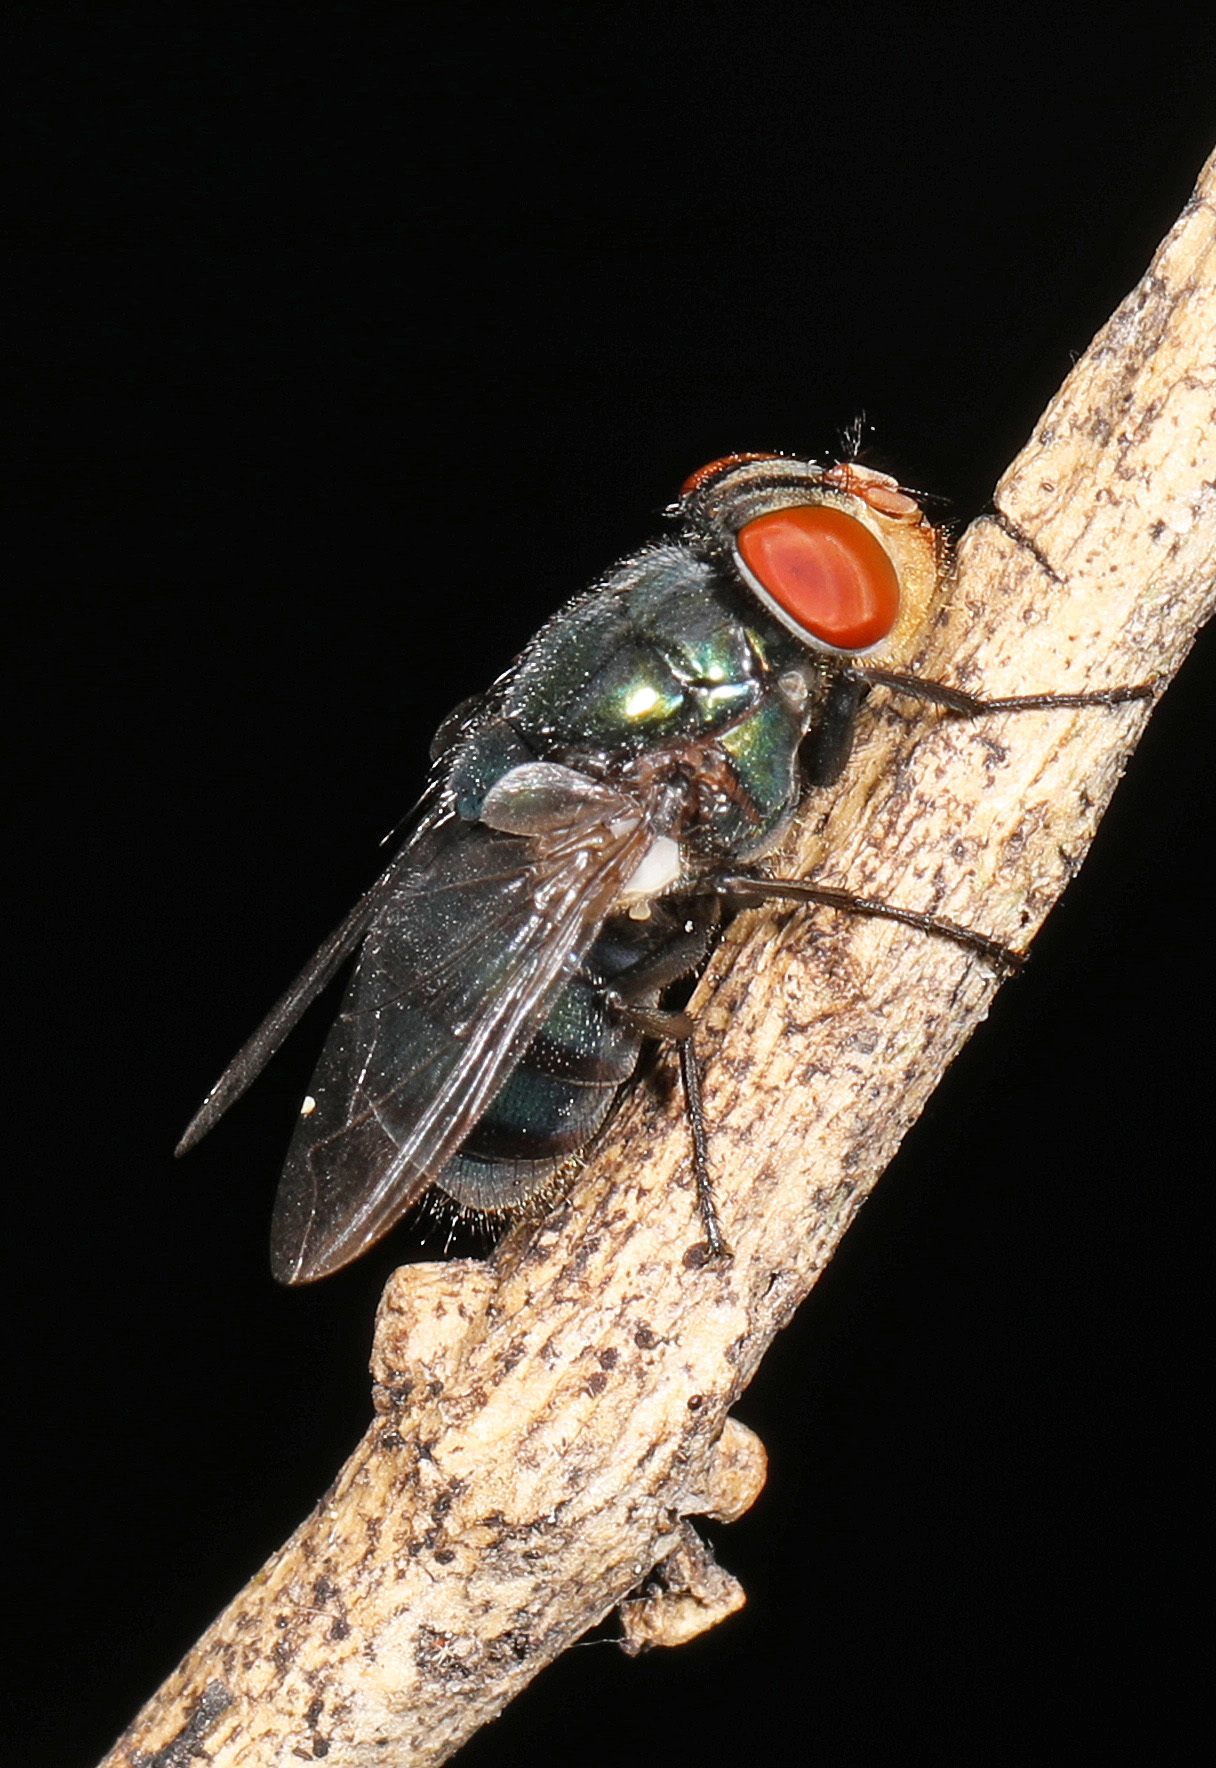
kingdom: Animalia
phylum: Arthropoda
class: Insecta
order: Diptera
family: Calliphoridae
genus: Chrysomya
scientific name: Chrysomya megacephala
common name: Blow fly
